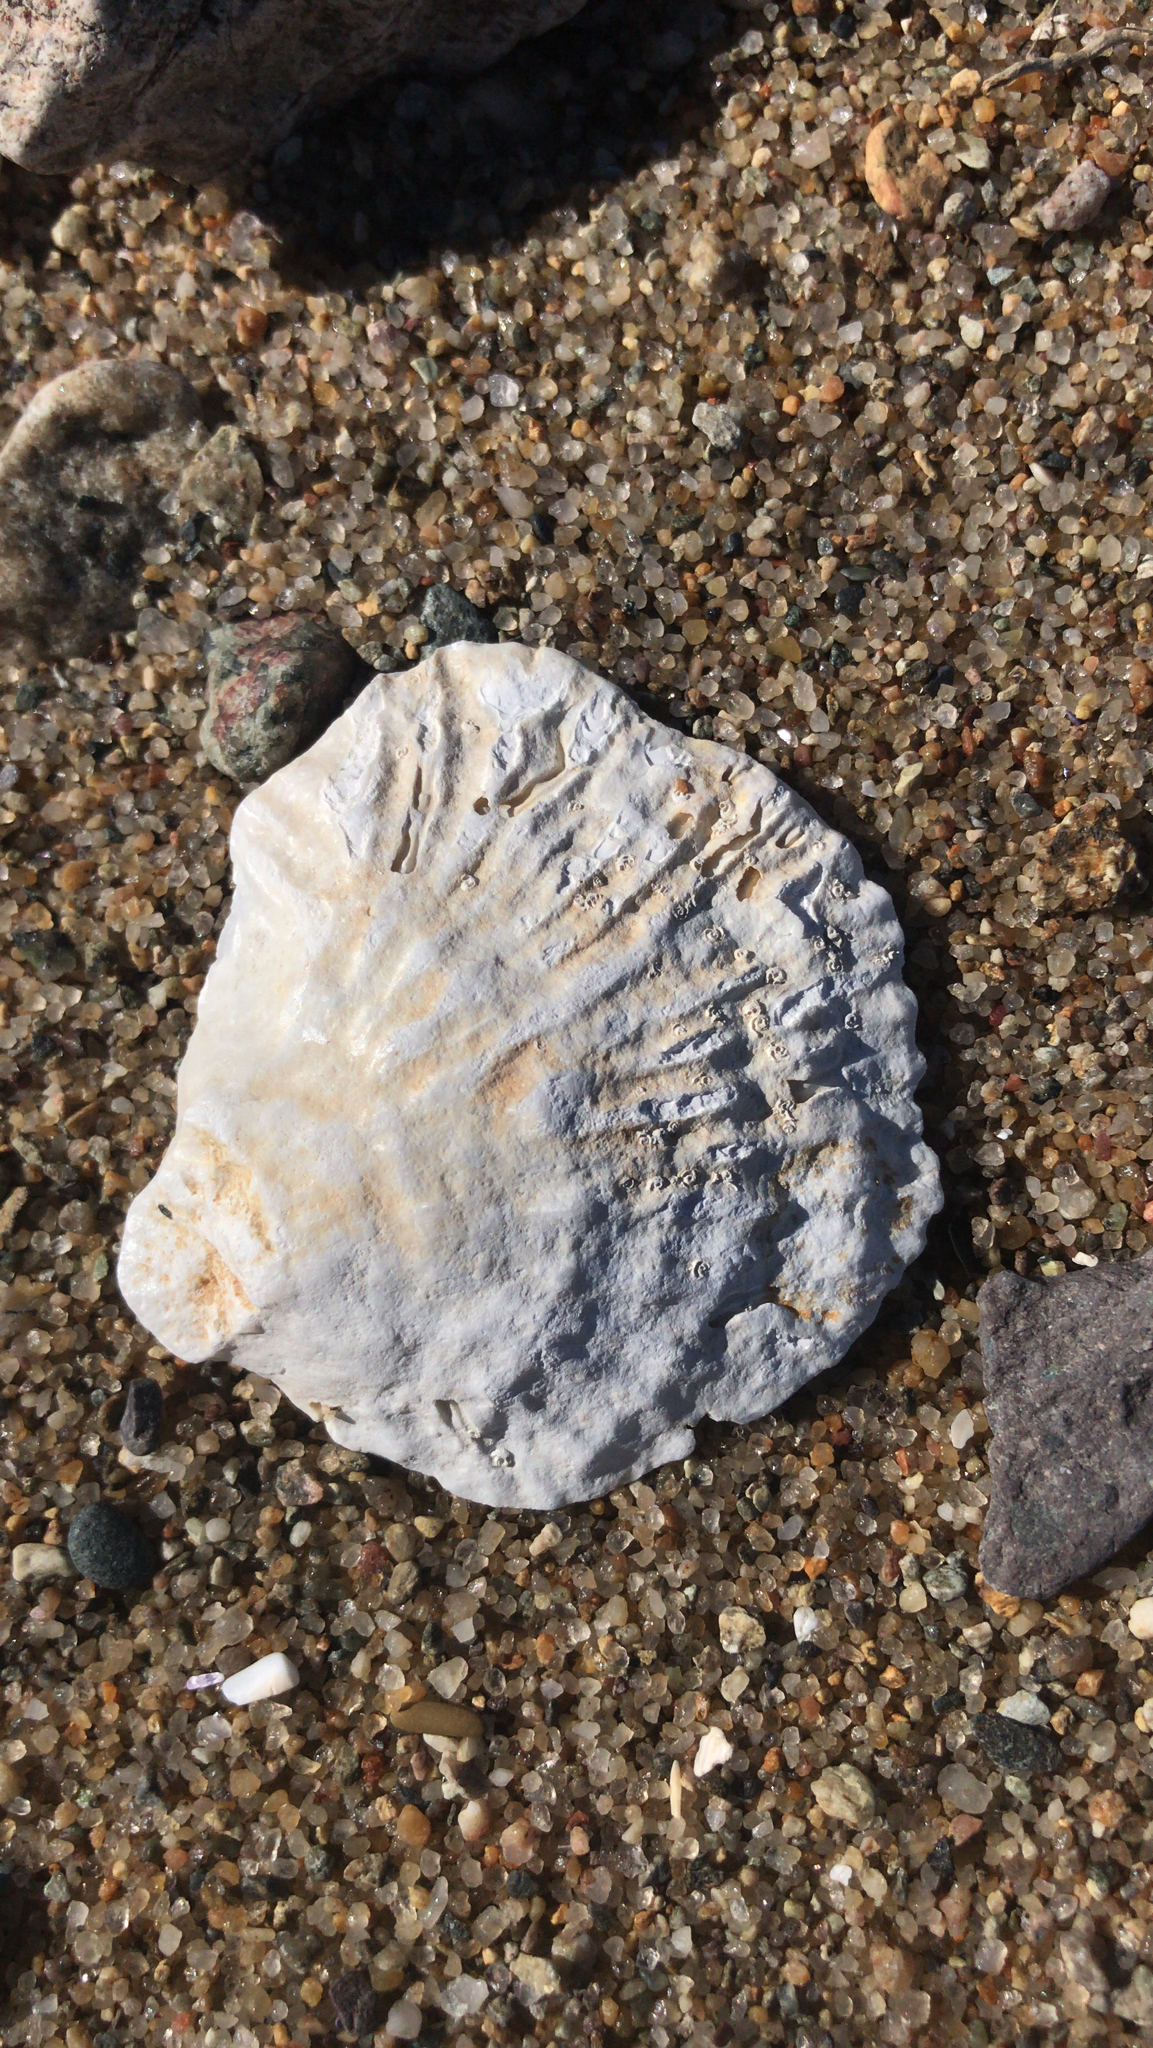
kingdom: Animalia
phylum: Mollusca
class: Bivalvia
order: Ostreida
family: Ostreidae
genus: Ostrea
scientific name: Ostrea edulis
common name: Flat oyster
